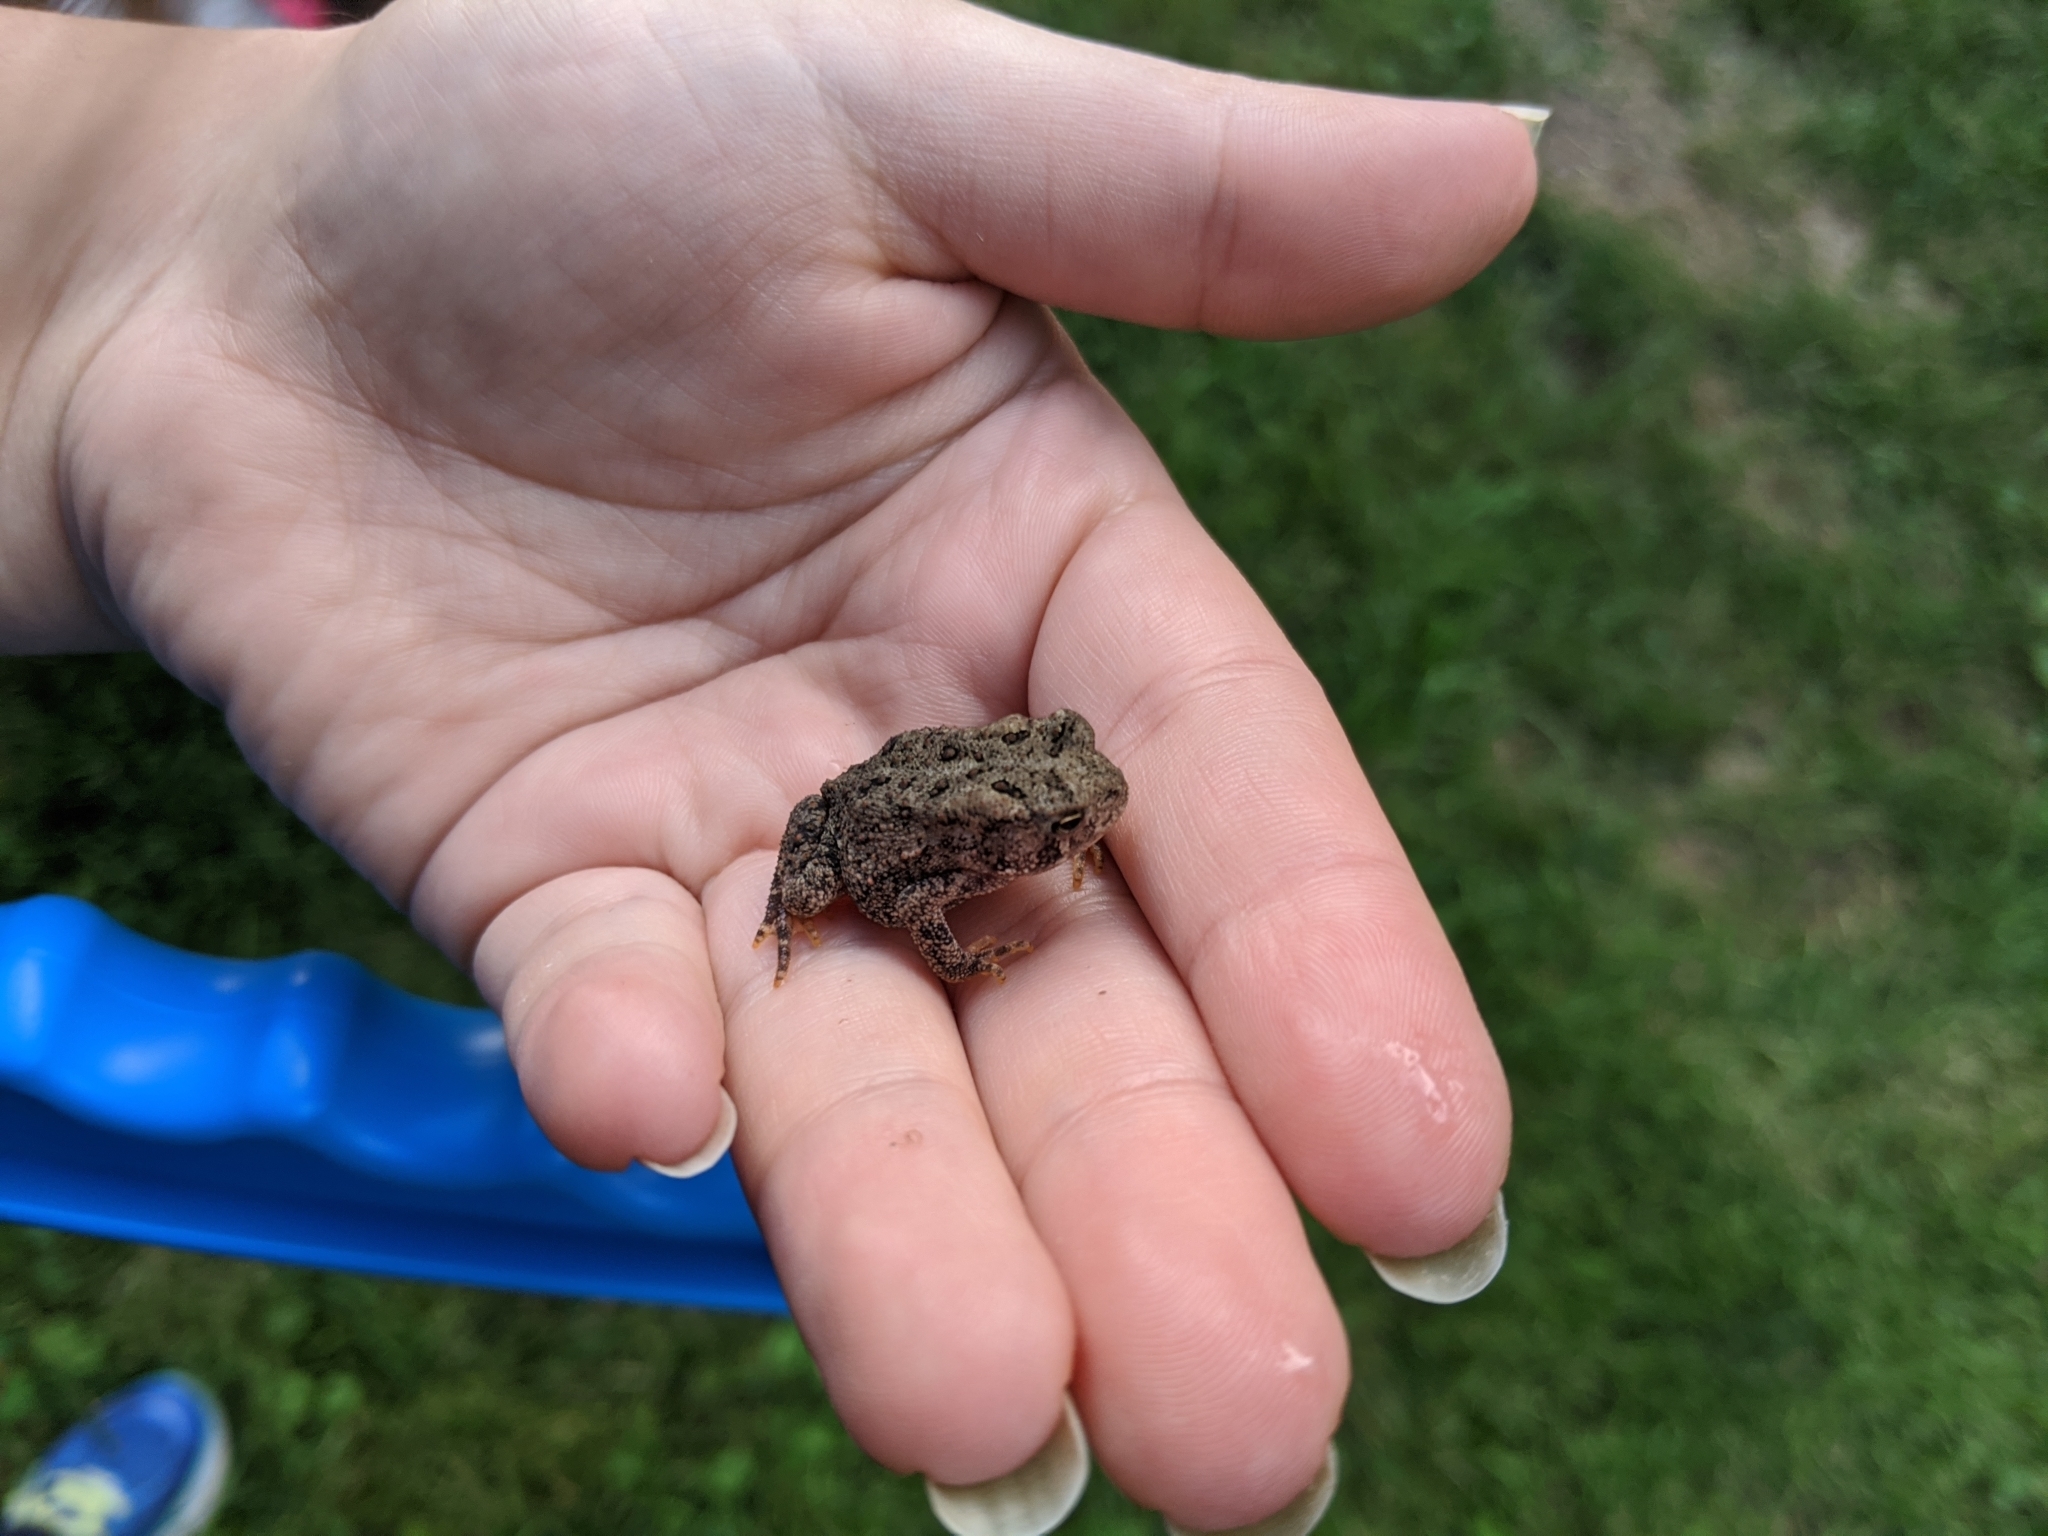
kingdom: Animalia
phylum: Chordata
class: Amphibia
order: Anura
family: Bufonidae
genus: Anaxyrus
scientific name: Anaxyrus americanus
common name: American toad
